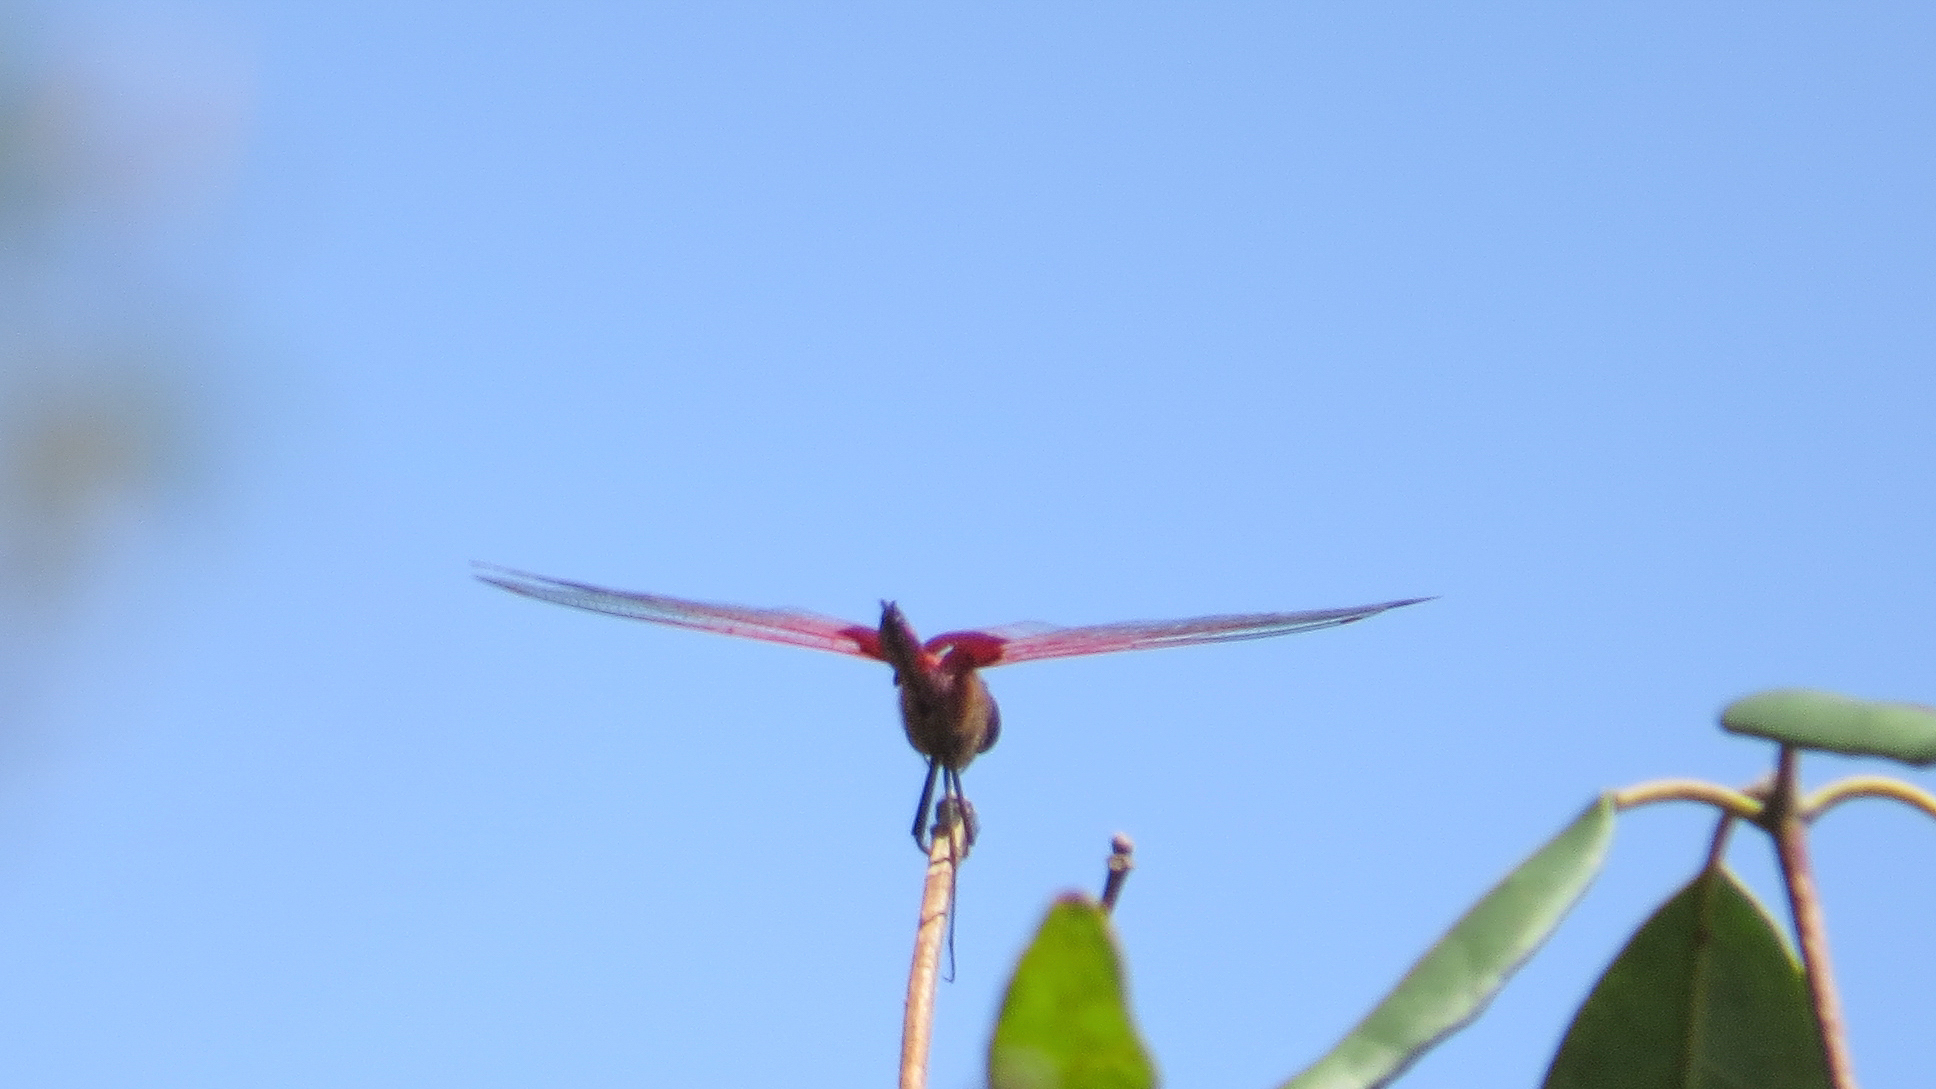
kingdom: Animalia
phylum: Arthropoda
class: Insecta
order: Odonata
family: Libellulidae
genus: Tramea
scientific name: Tramea eurybia
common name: Dune glider
